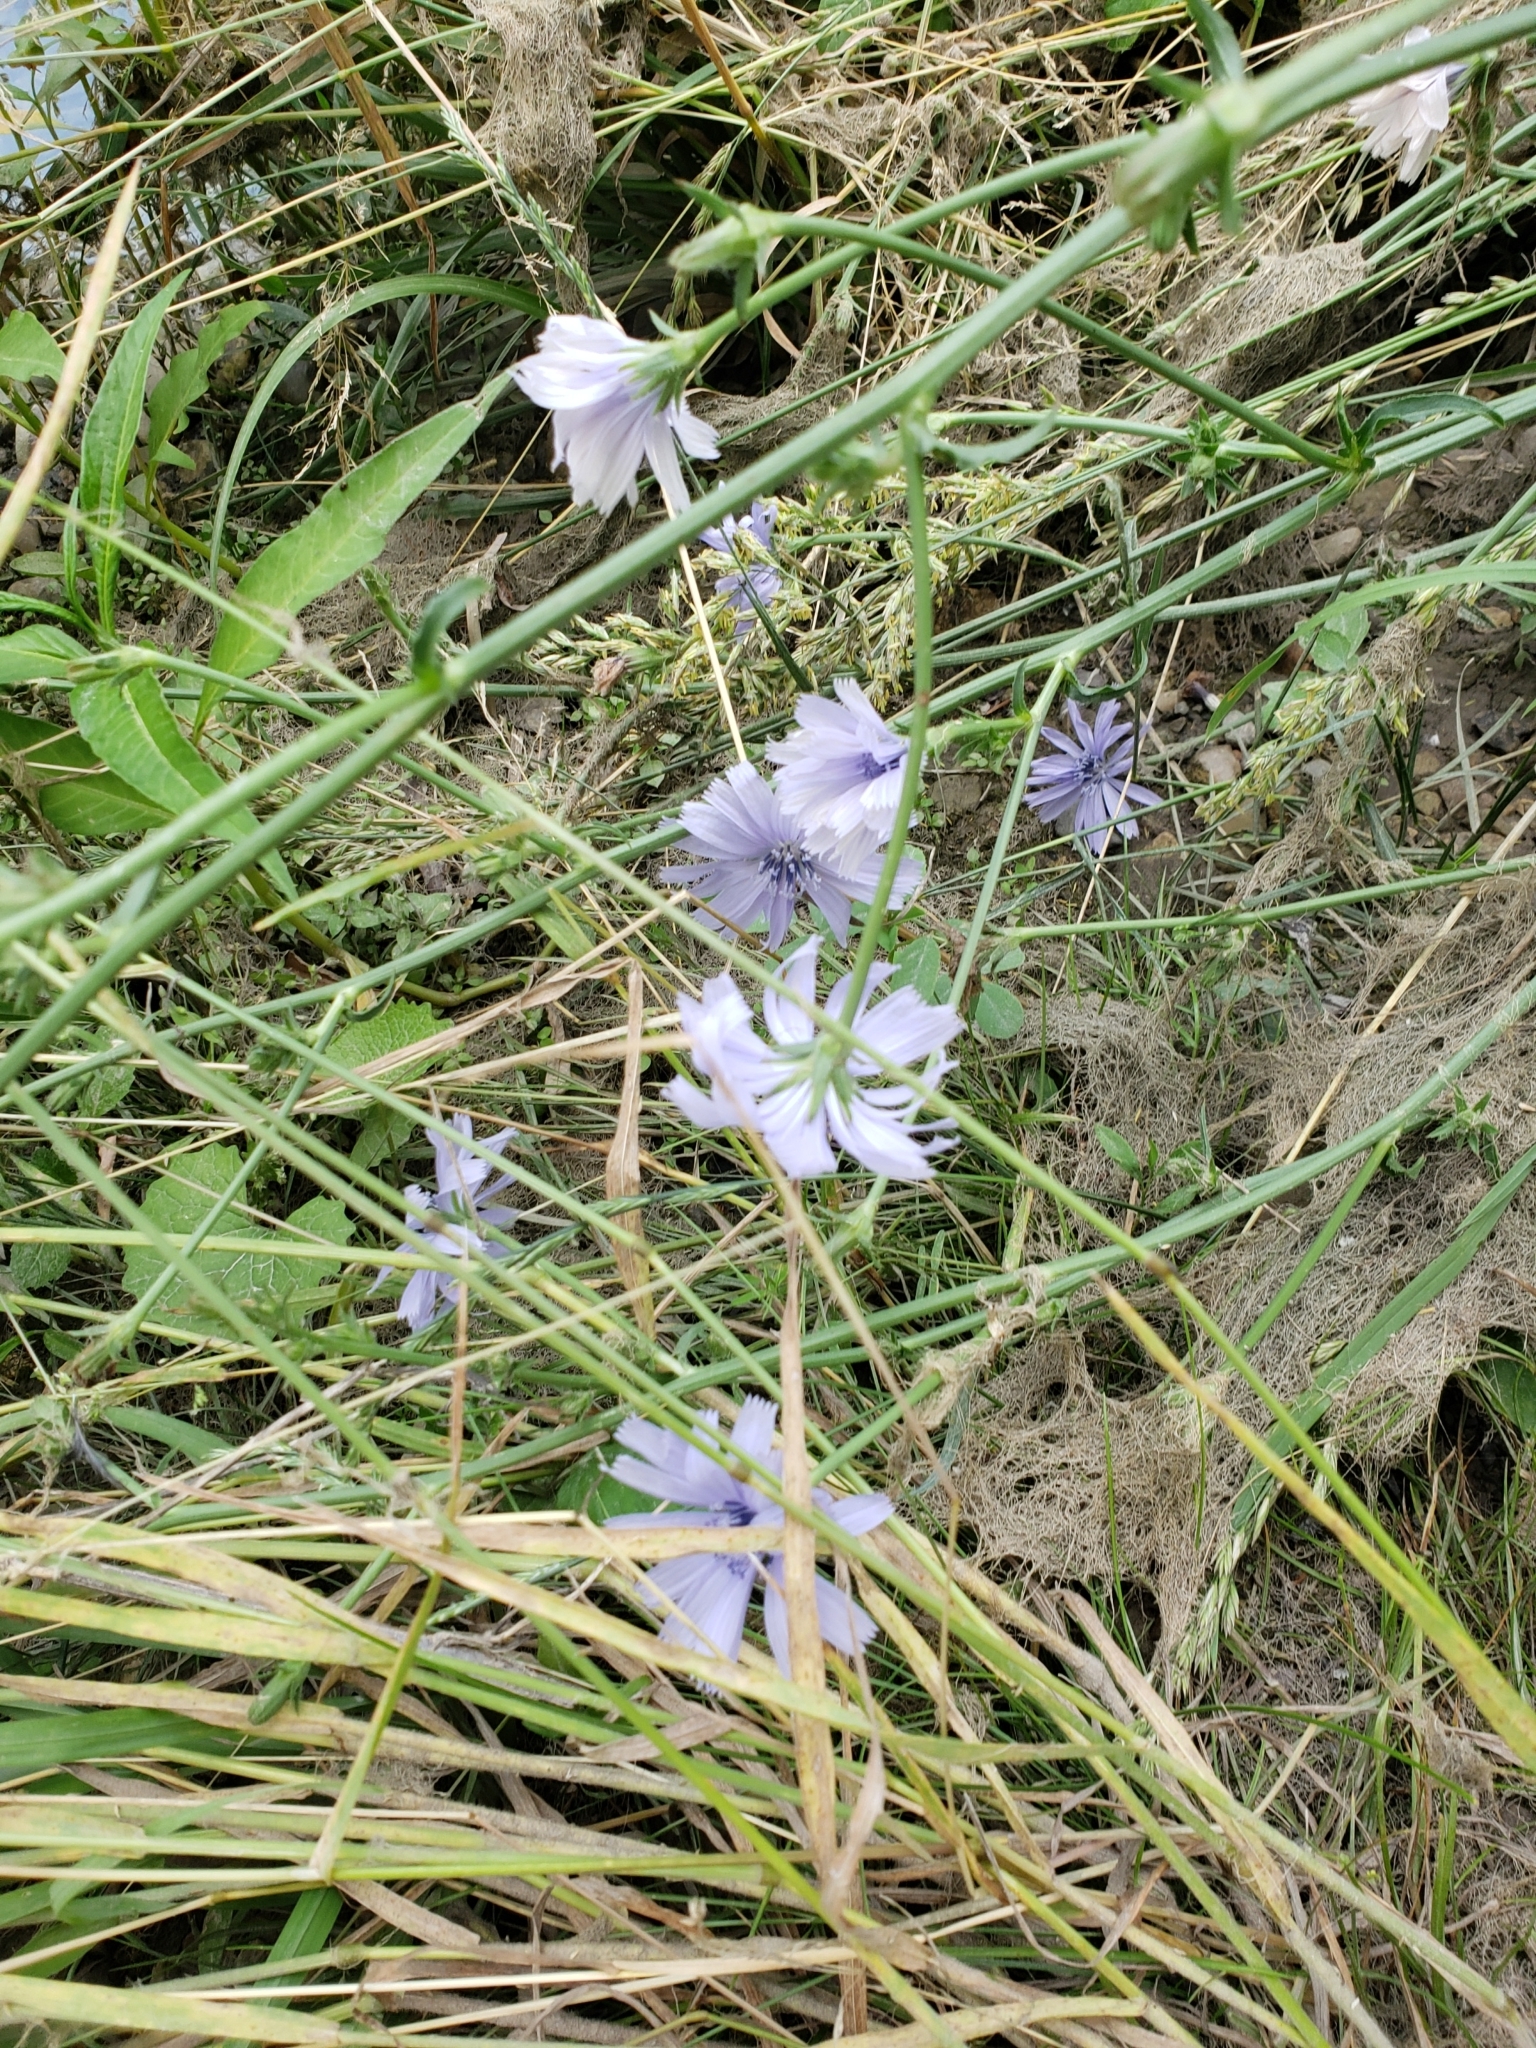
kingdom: Plantae
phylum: Tracheophyta
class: Magnoliopsida
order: Asterales
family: Asteraceae
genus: Cichorium
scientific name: Cichorium intybus
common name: Chicory
